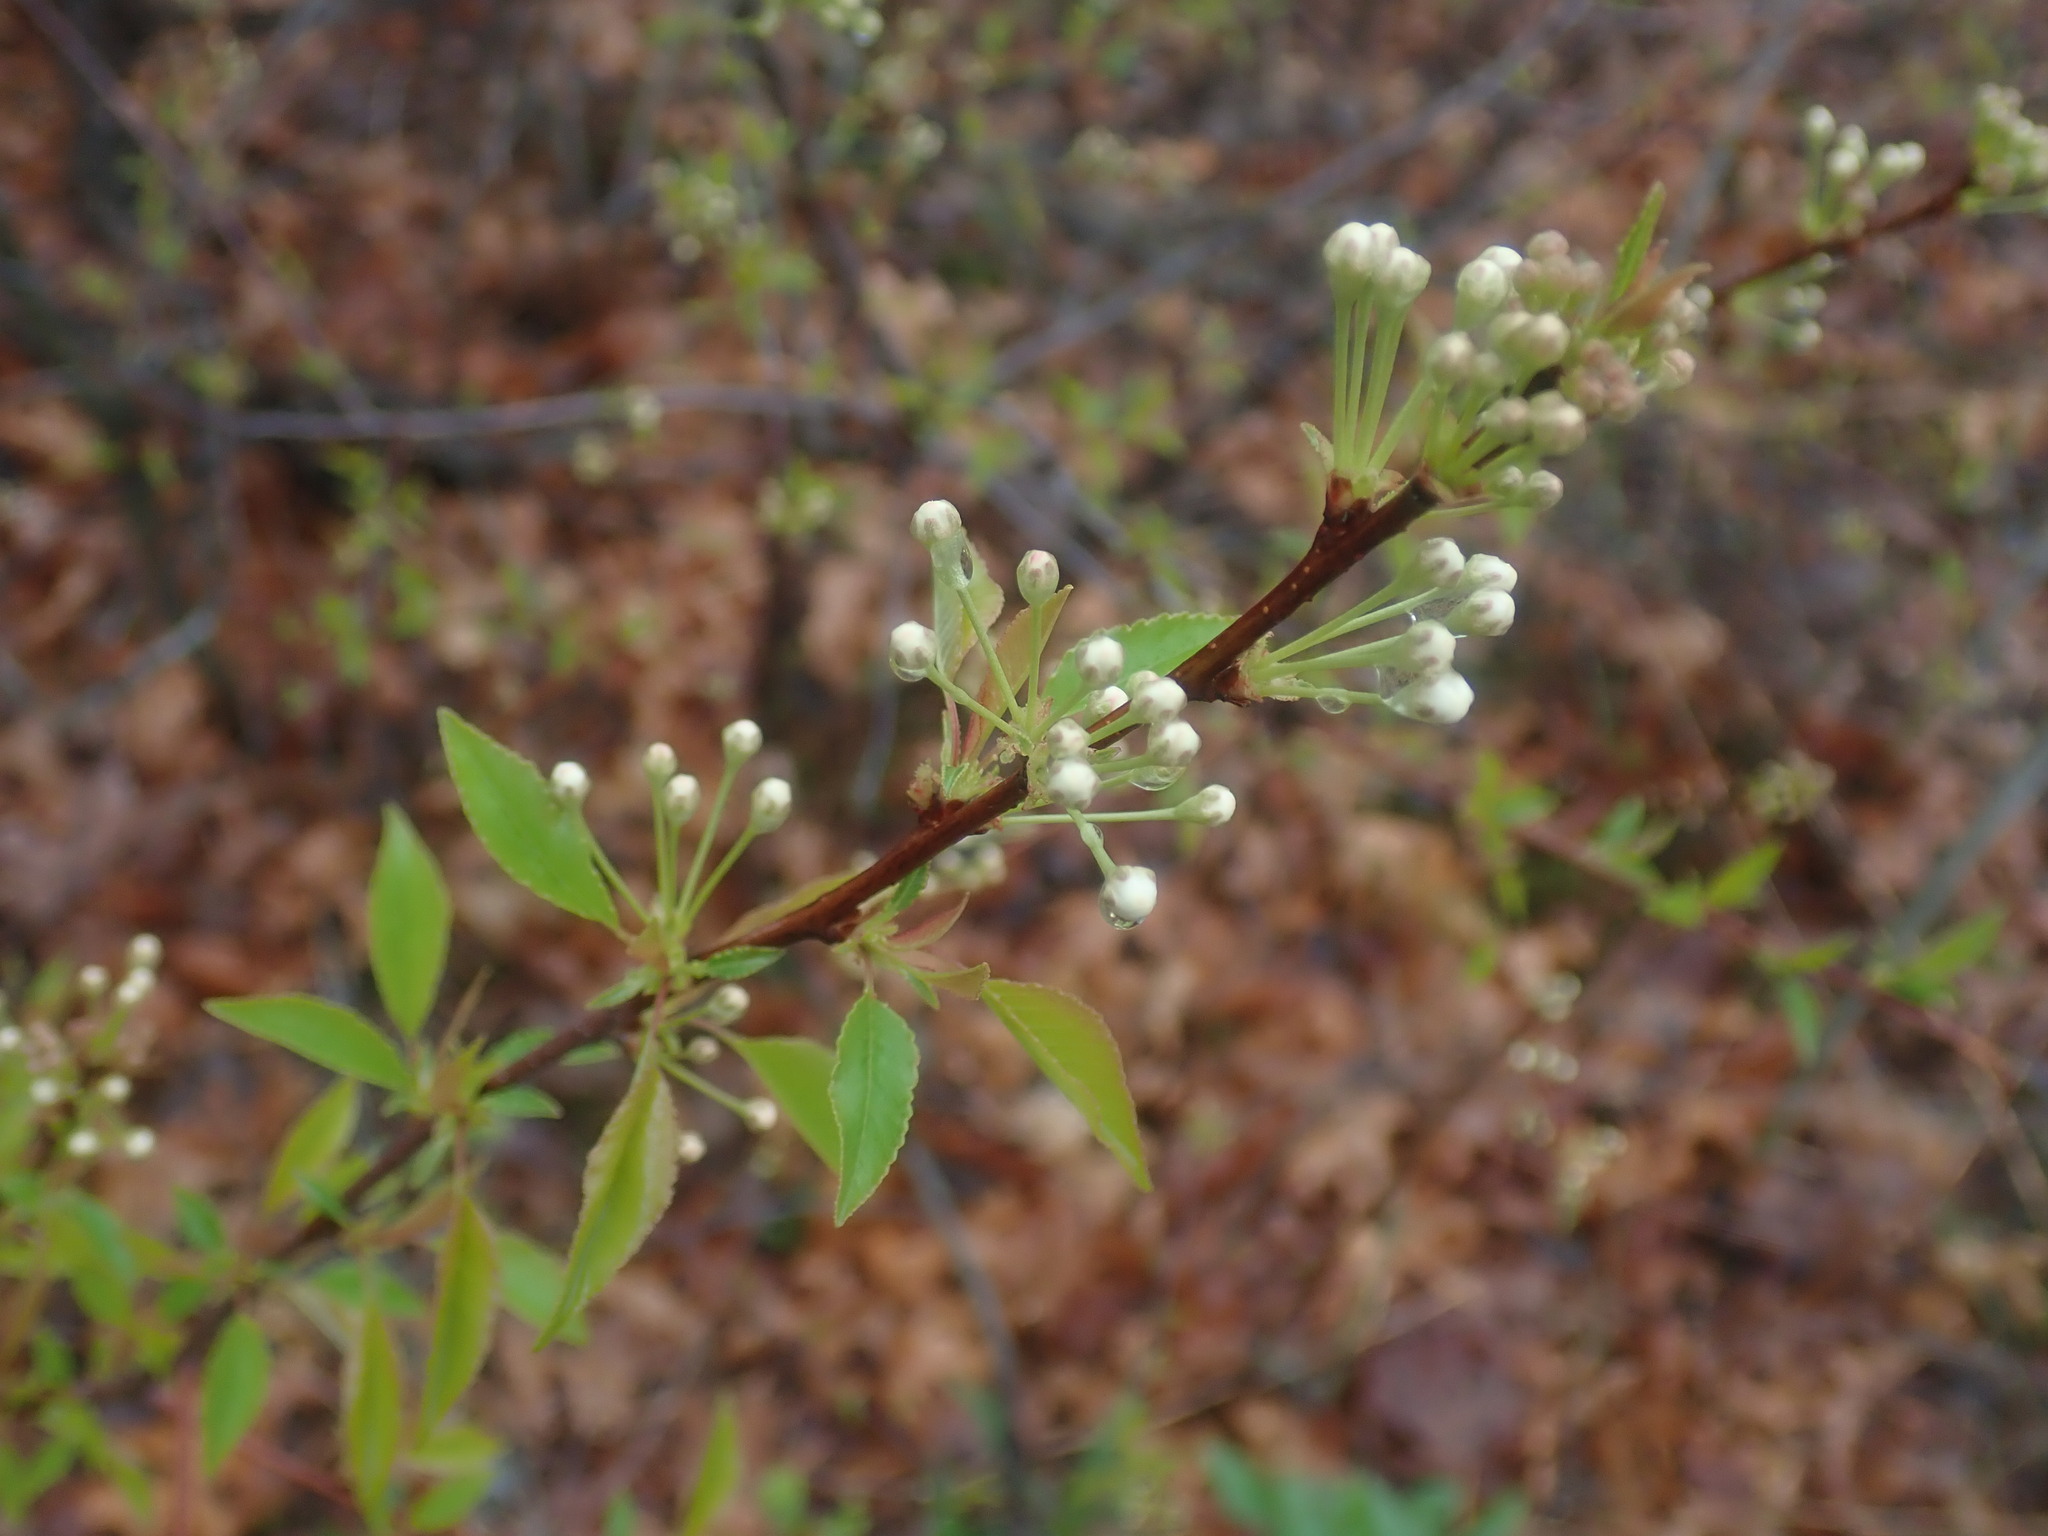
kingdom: Plantae
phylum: Tracheophyta
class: Magnoliopsida
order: Rosales
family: Rosaceae
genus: Prunus
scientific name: Prunus pensylvanica
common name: Pin cherry
